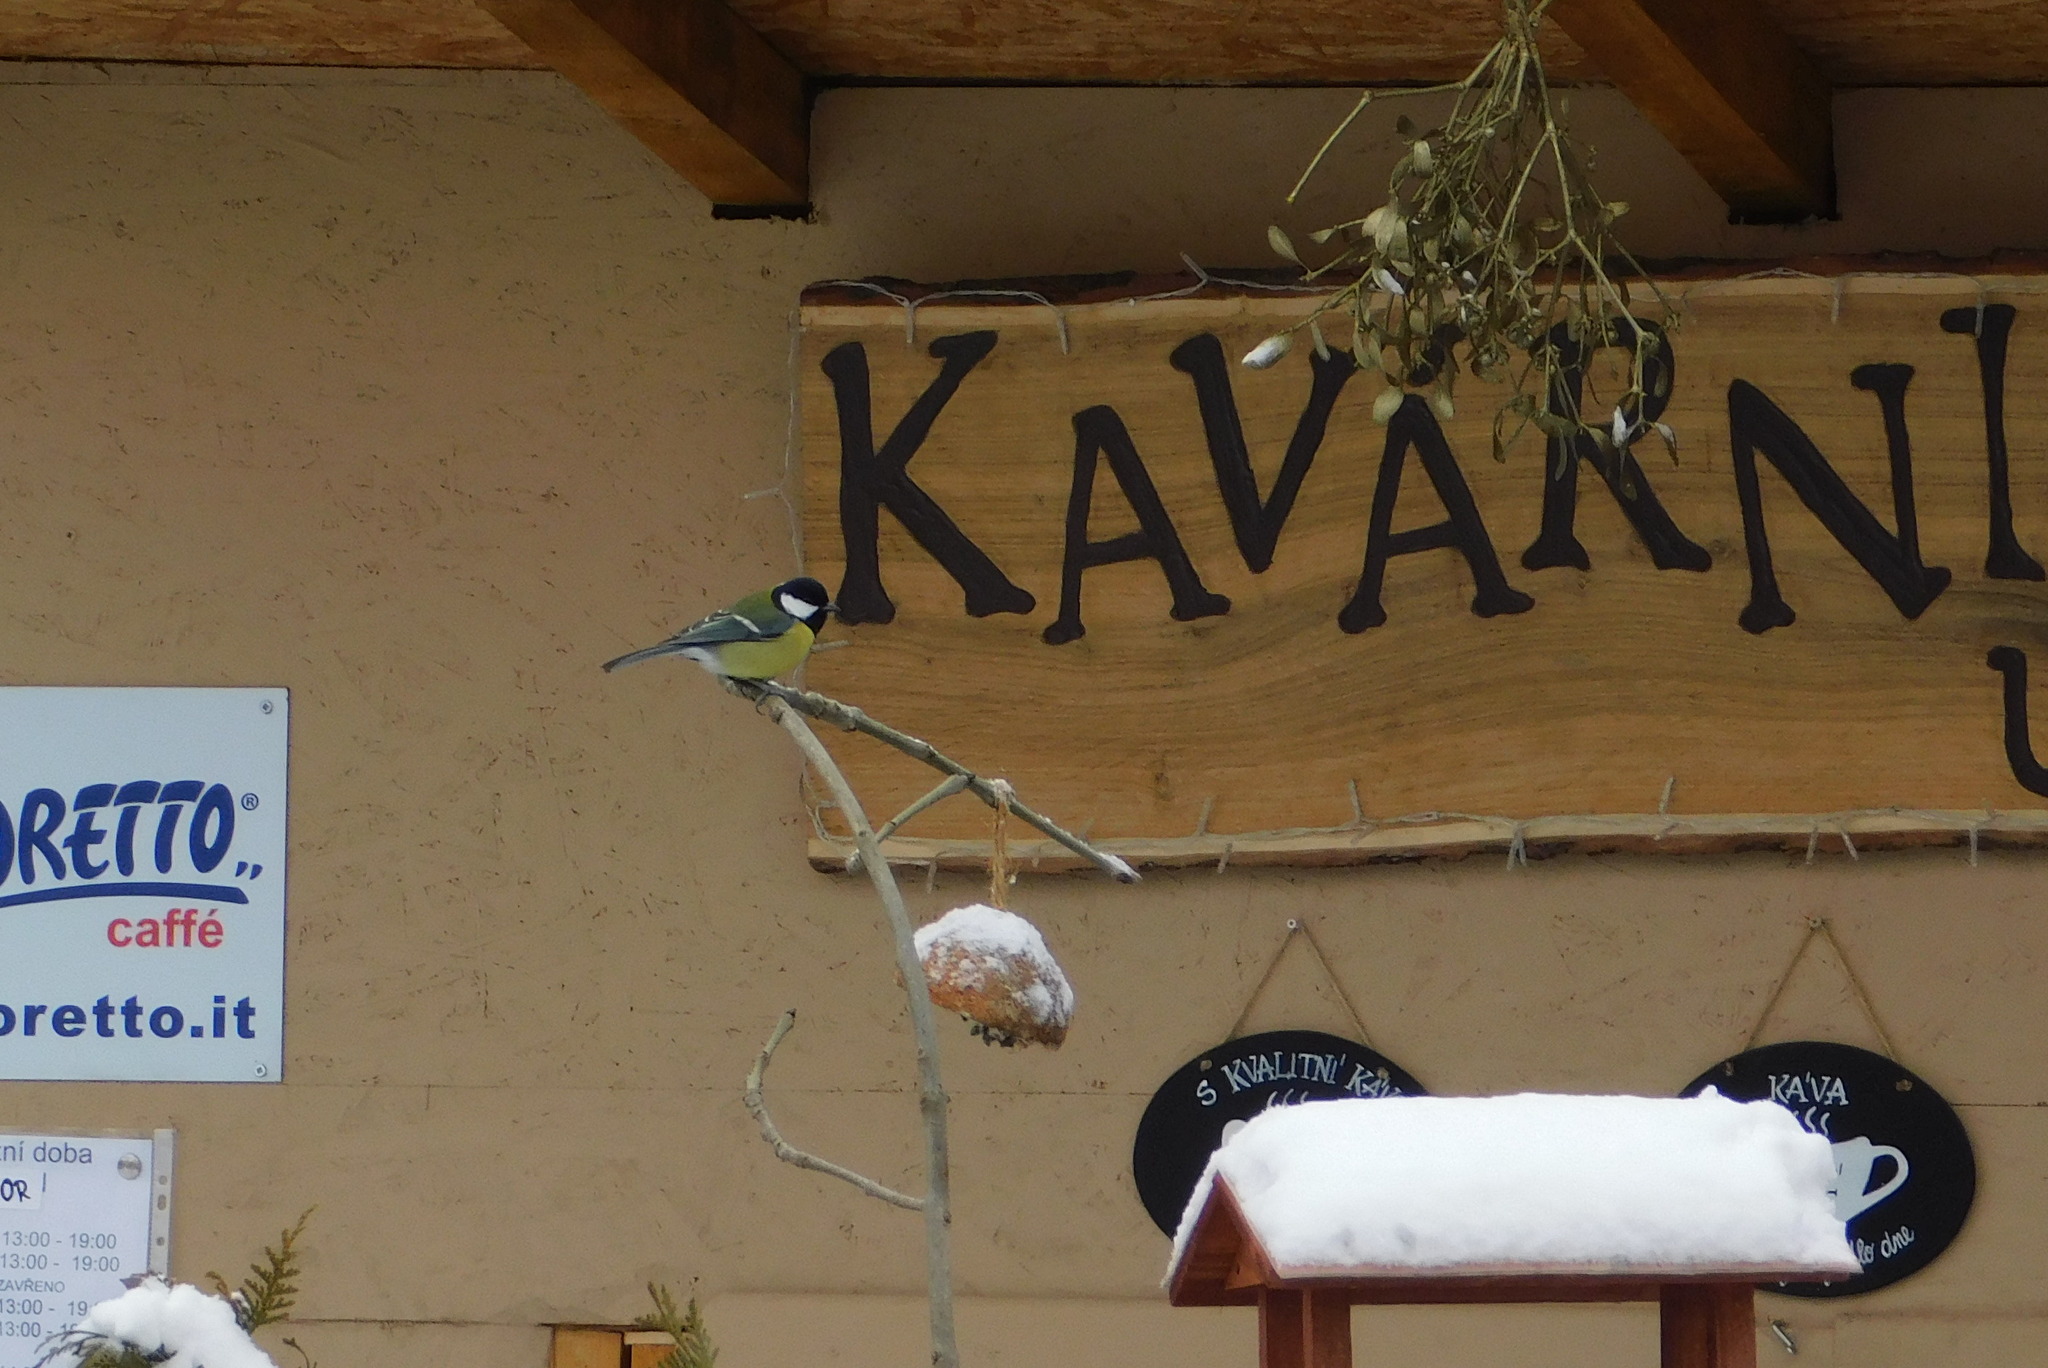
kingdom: Animalia
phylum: Chordata
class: Aves
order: Passeriformes
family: Paridae
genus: Parus
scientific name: Parus major
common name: Great tit
